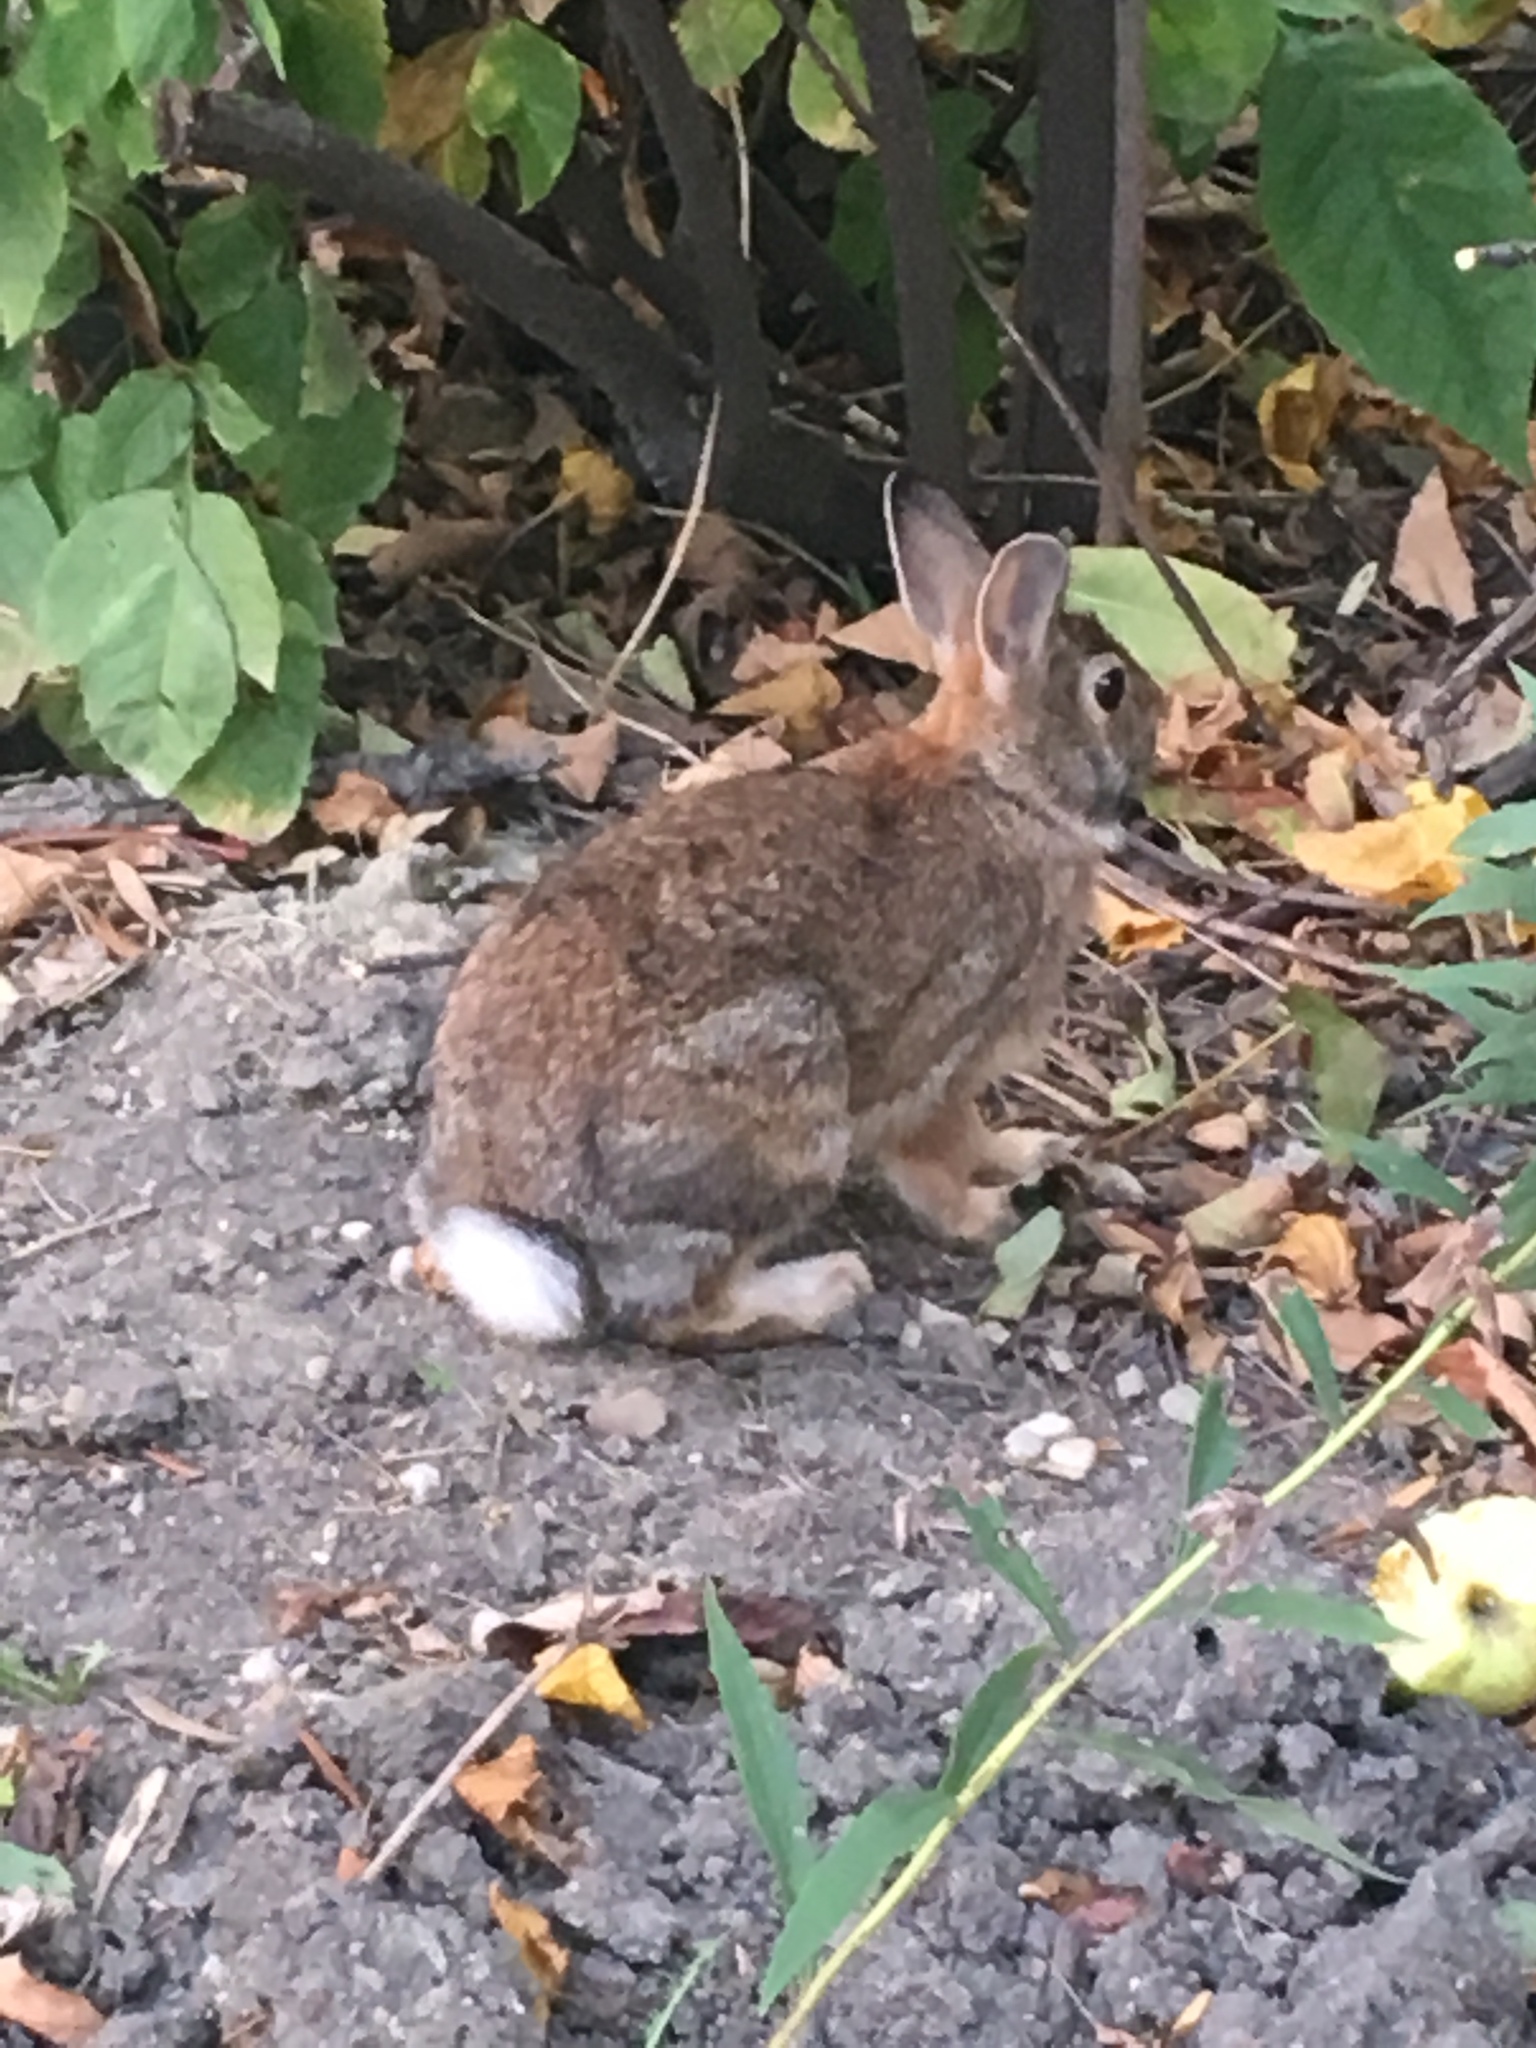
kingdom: Animalia
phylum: Chordata
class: Mammalia
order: Lagomorpha
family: Leporidae
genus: Sylvilagus
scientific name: Sylvilagus floridanus
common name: Eastern cottontail
